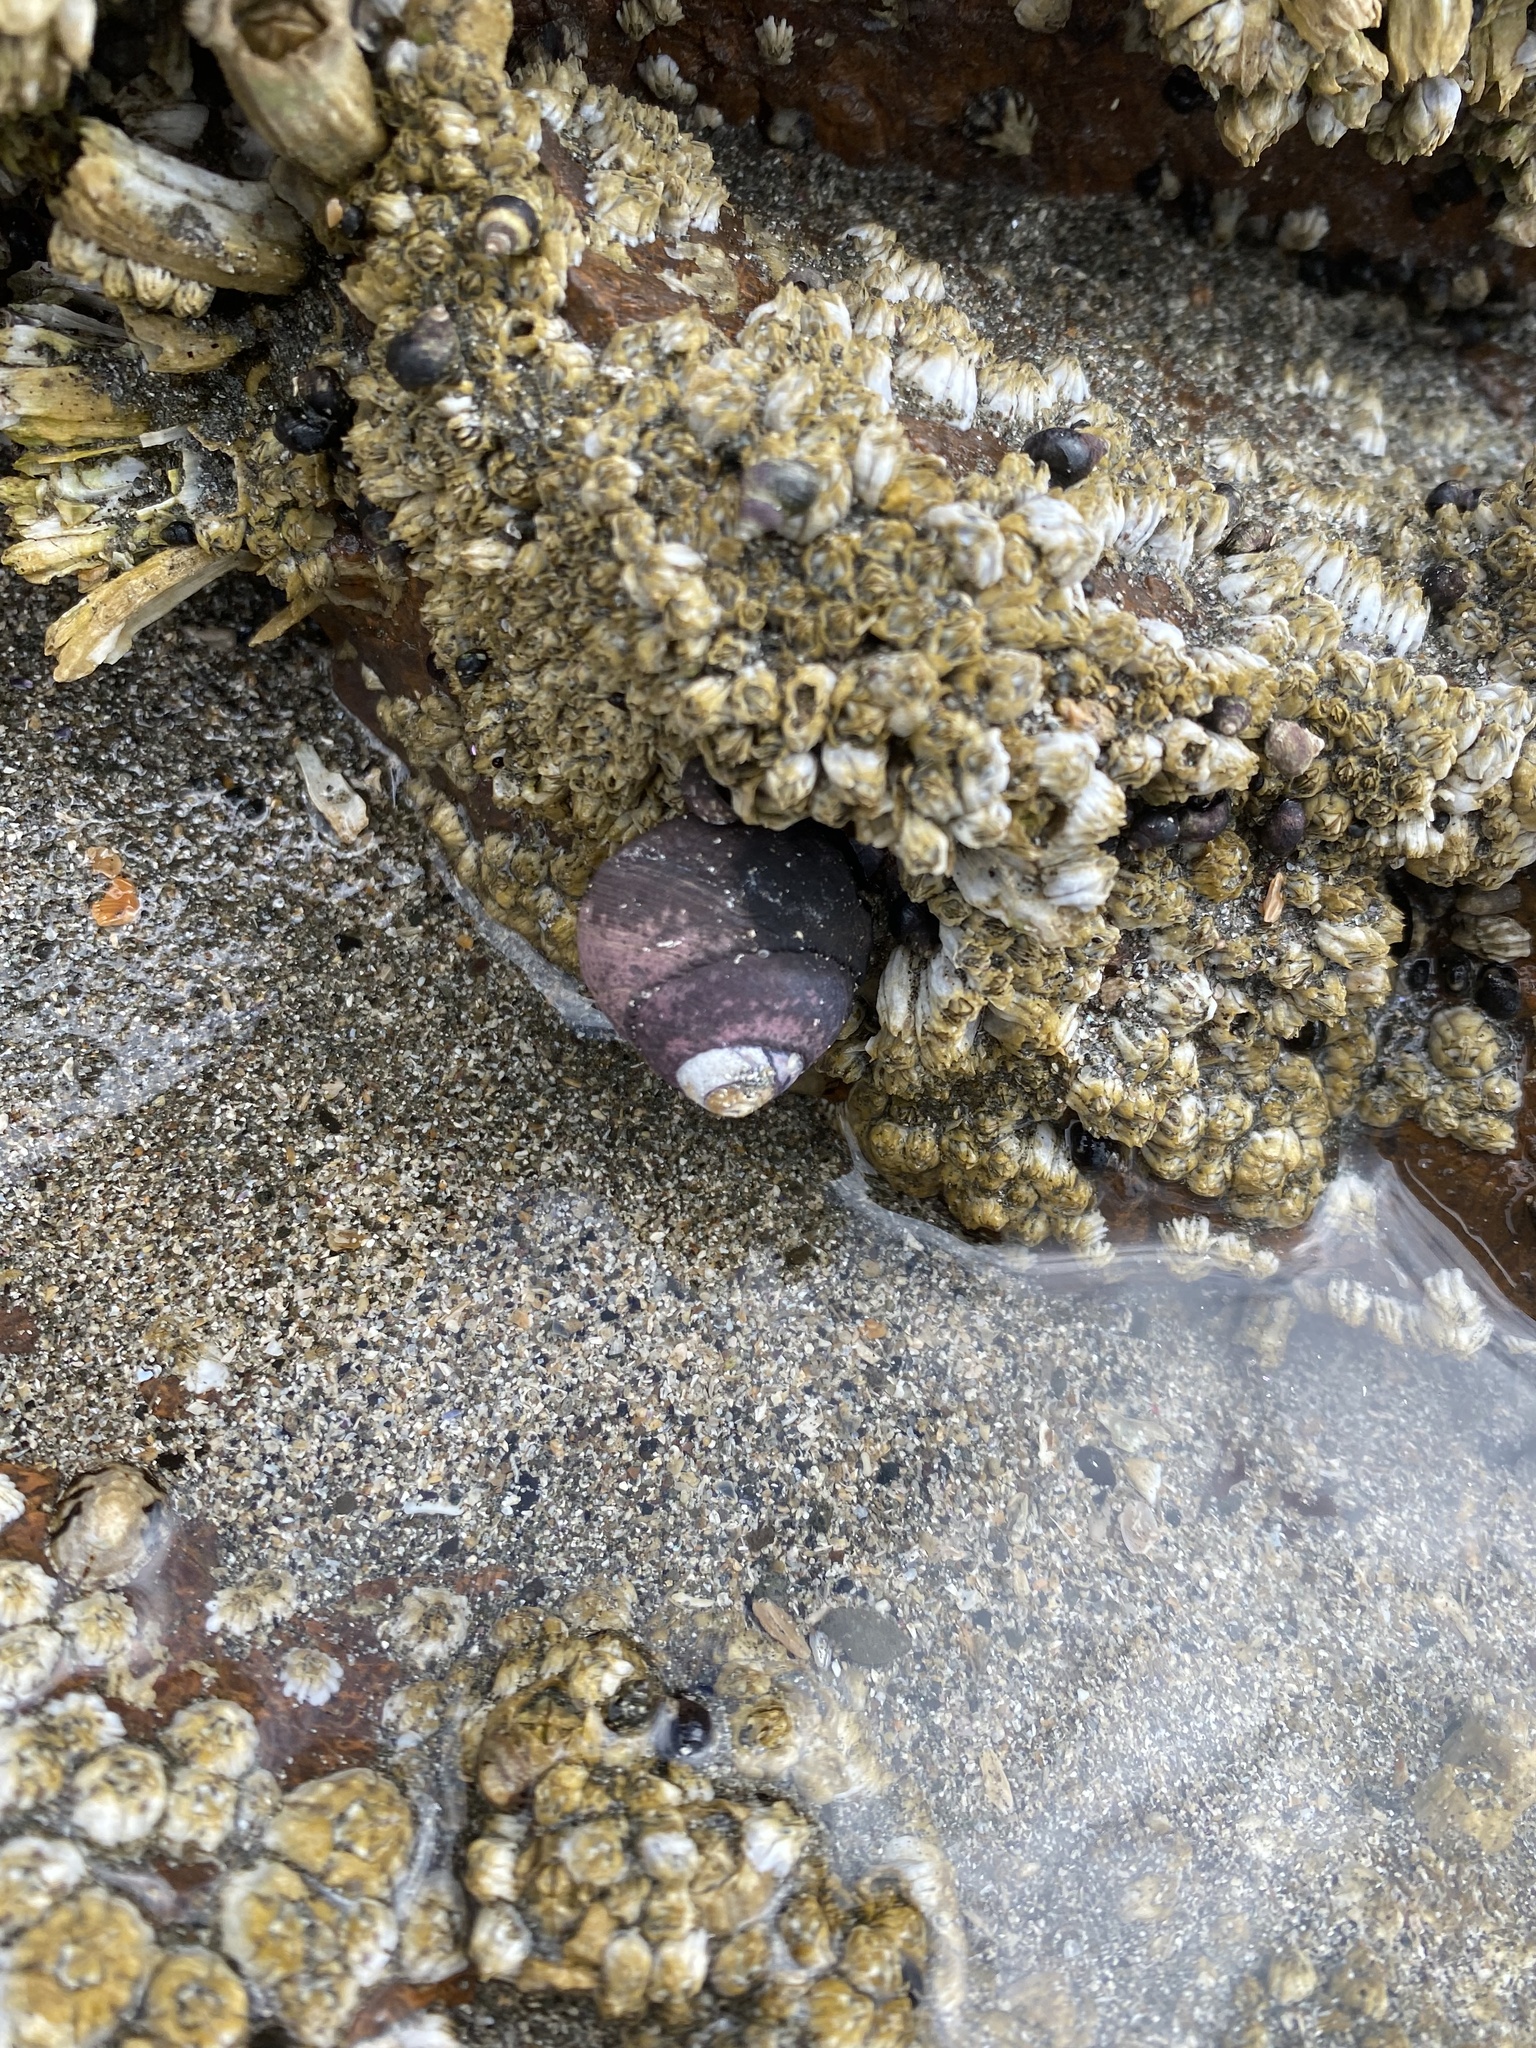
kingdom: Animalia
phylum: Mollusca
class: Gastropoda
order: Trochida
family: Tegulidae
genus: Tegula
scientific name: Tegula funebralis
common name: Black tegula
